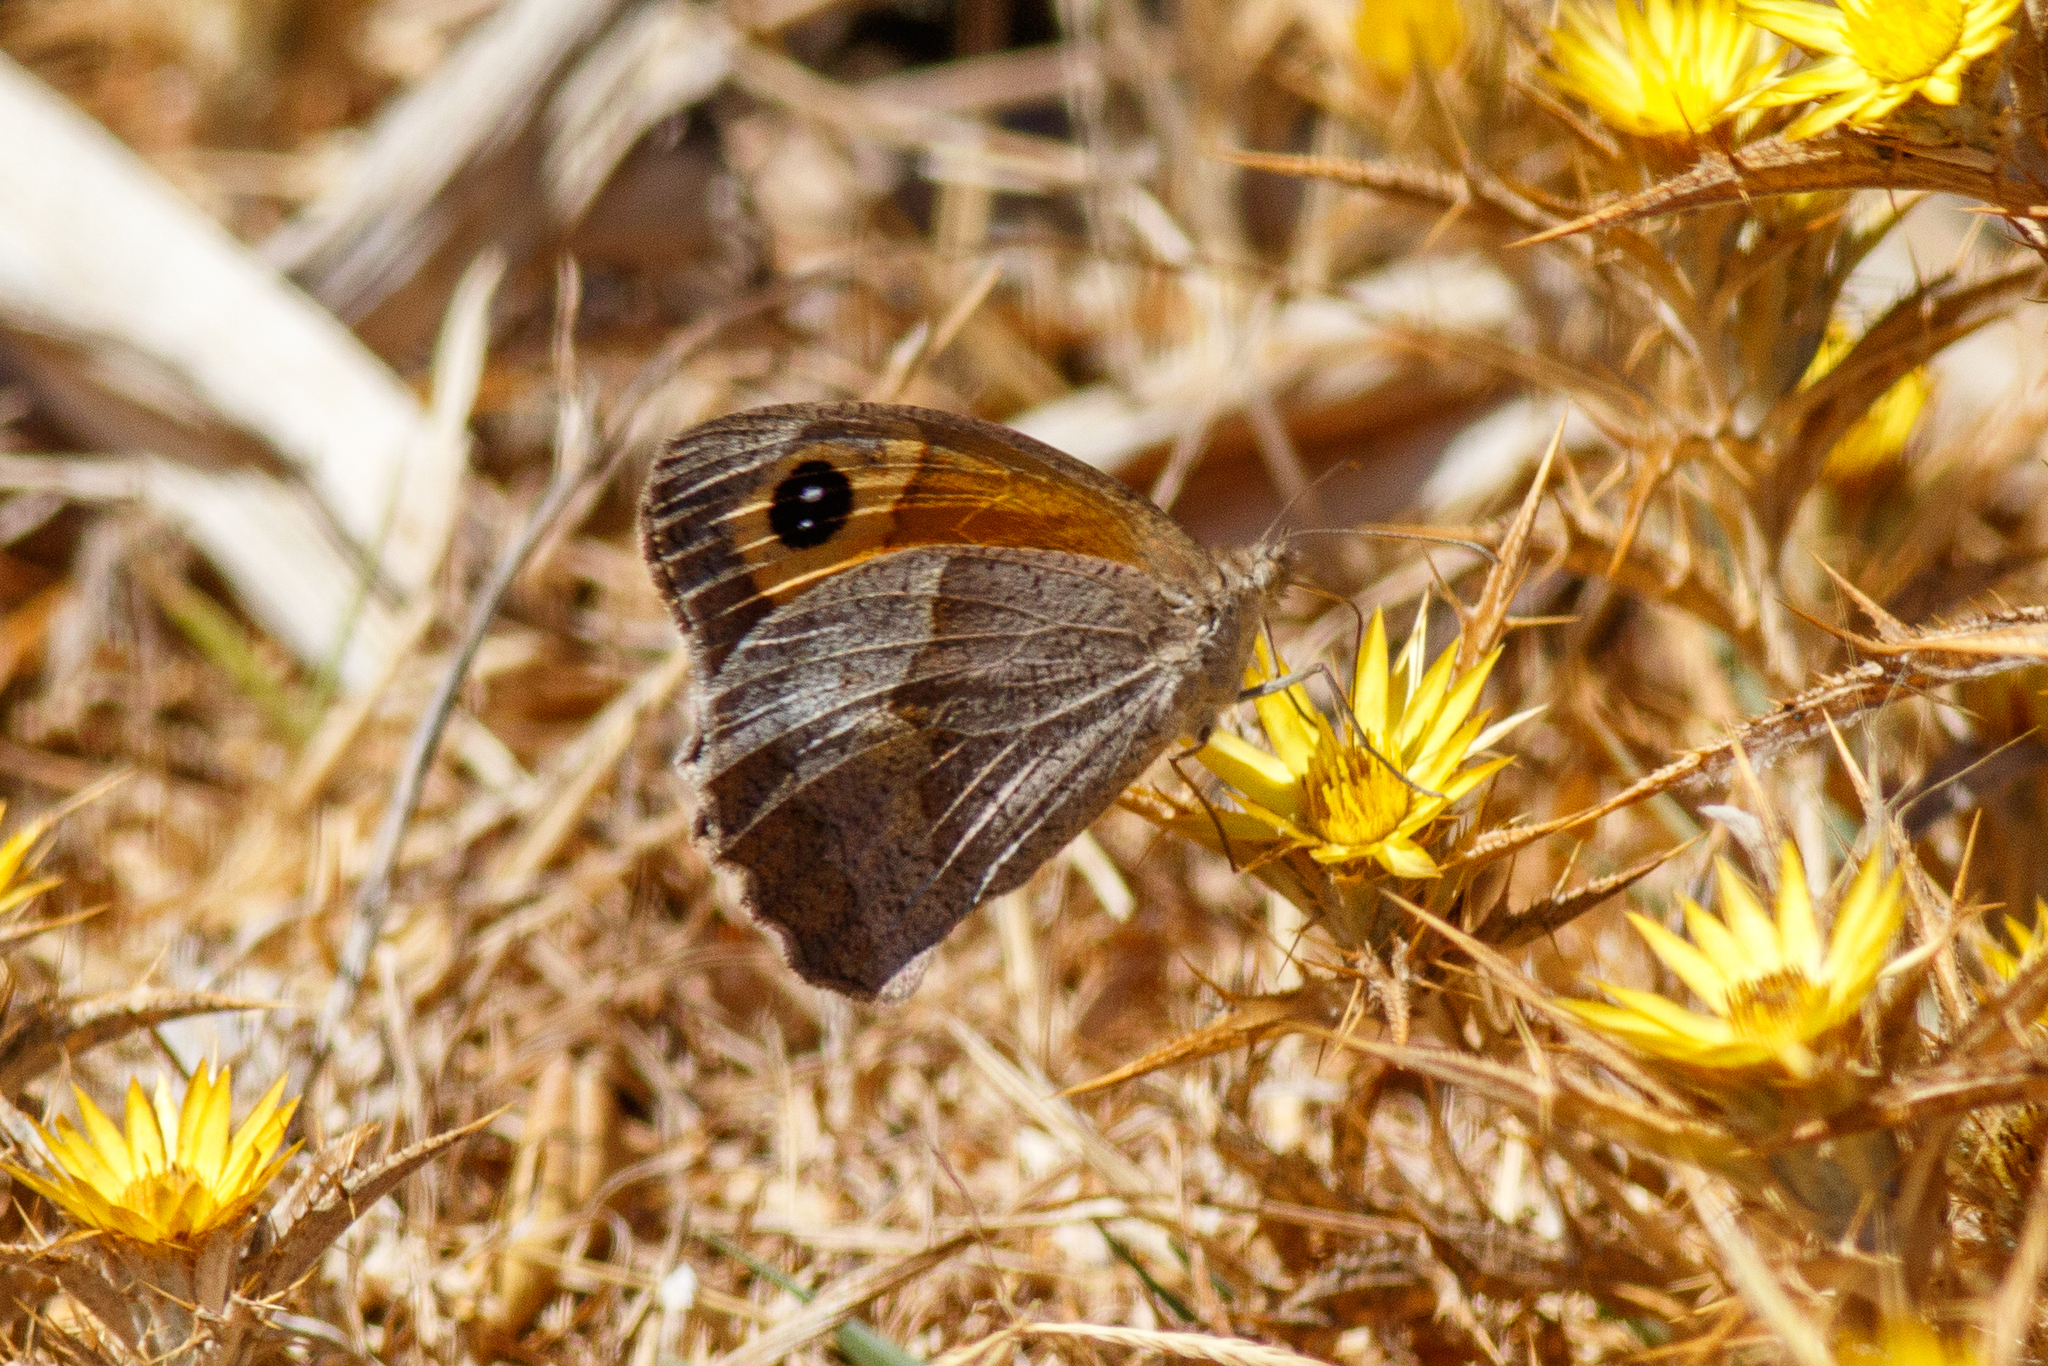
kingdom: Animalia
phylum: Arthropoda
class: Insecta
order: Lepidoptera
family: Nymphalidae
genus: Maniola
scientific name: Maniola jurtina
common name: Meadow brown
